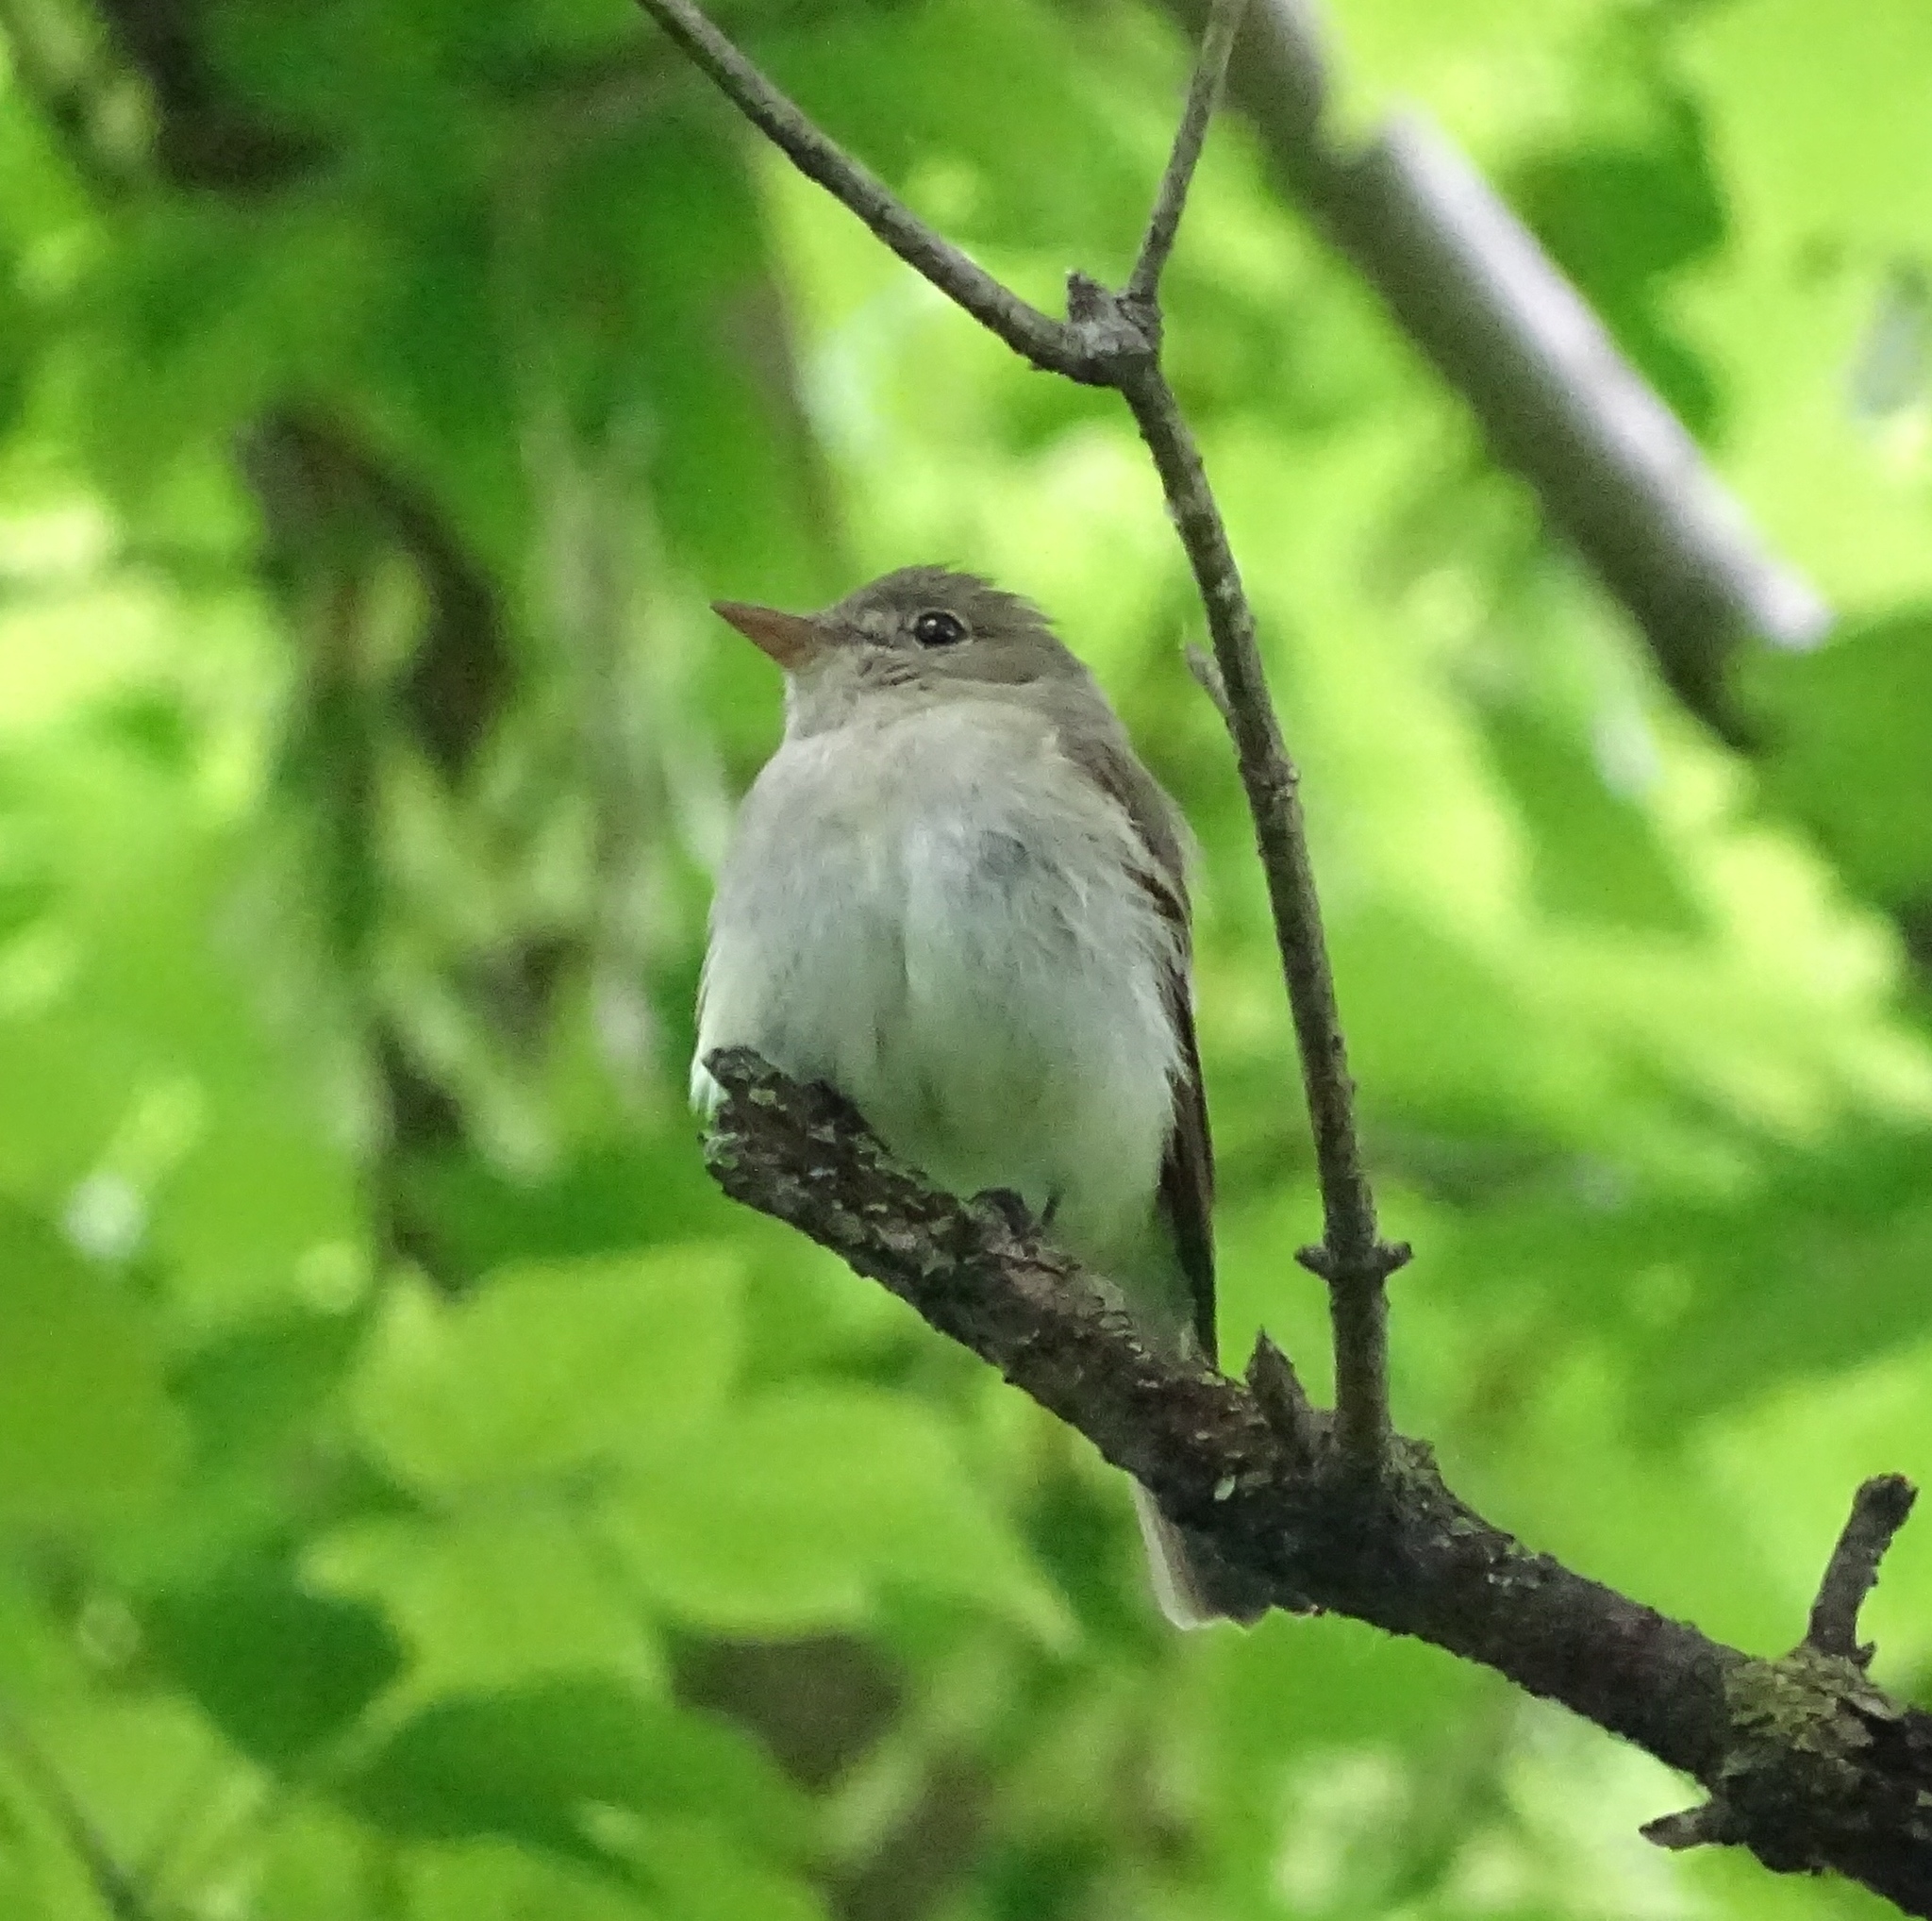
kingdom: Animalia
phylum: Chordata
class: Aves
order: Passeriformes
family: Tyrannidae
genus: Empidonax
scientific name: Empidonax virescens
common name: Acadian flycatcher
